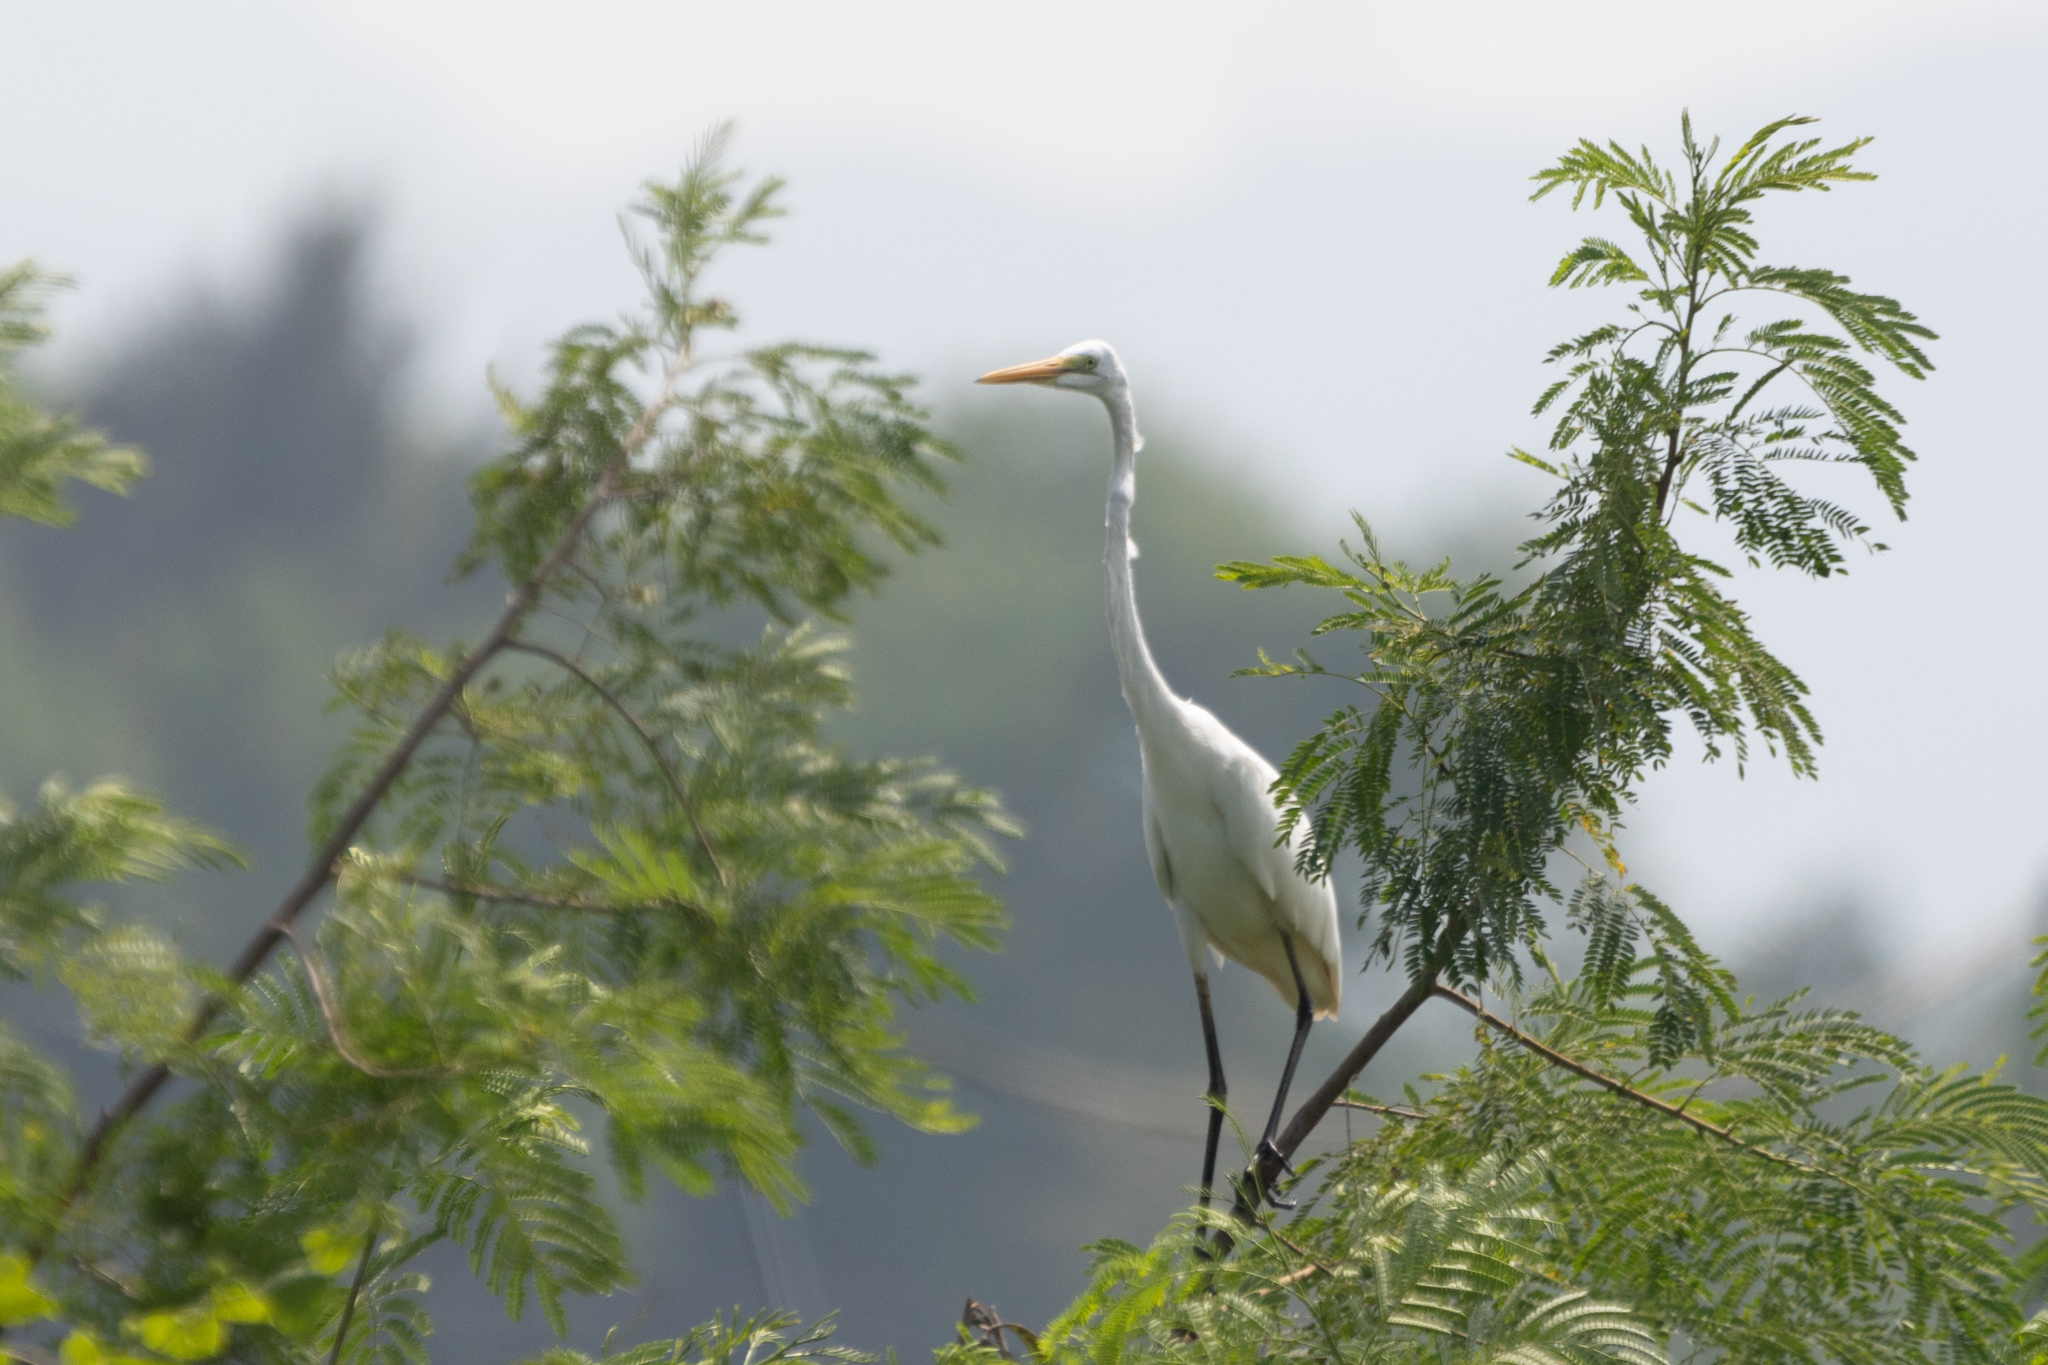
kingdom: Animalia
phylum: Chordata
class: Aves
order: Pelecaniformes
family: Ardeidae
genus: Ardea
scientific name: Ardea alba
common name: Great egret
